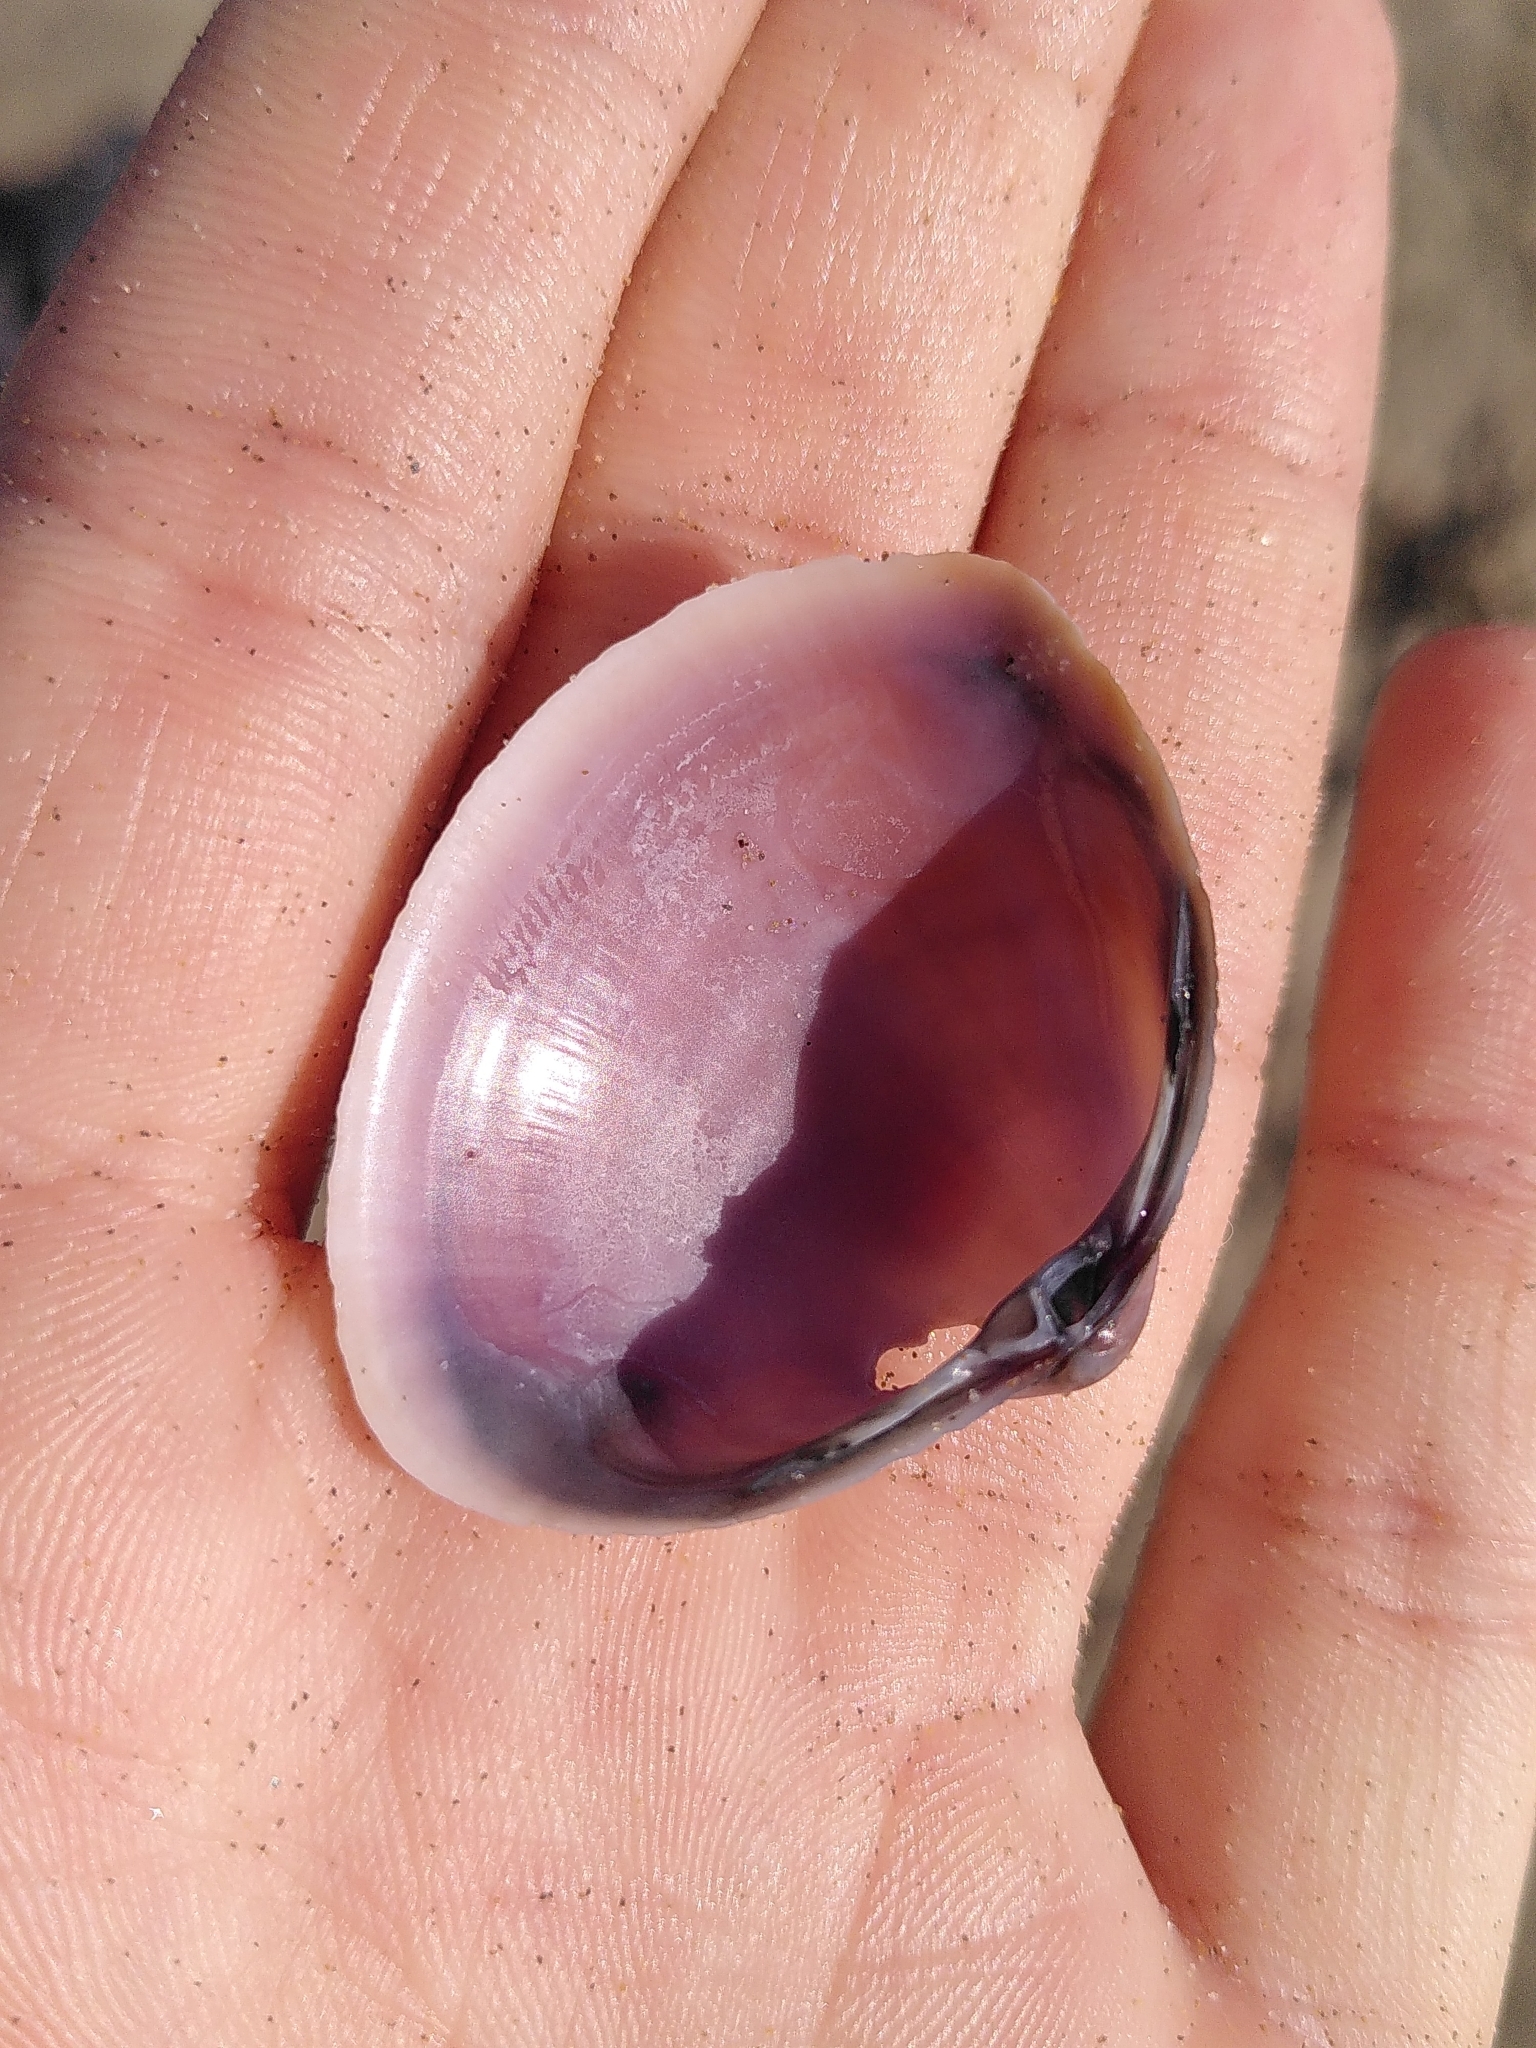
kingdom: Animalia
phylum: Mollusca
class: Bivalvia
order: Venerida
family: Mactridae
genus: Mactra
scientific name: Mactra stultorum
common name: Rayed trough shell
